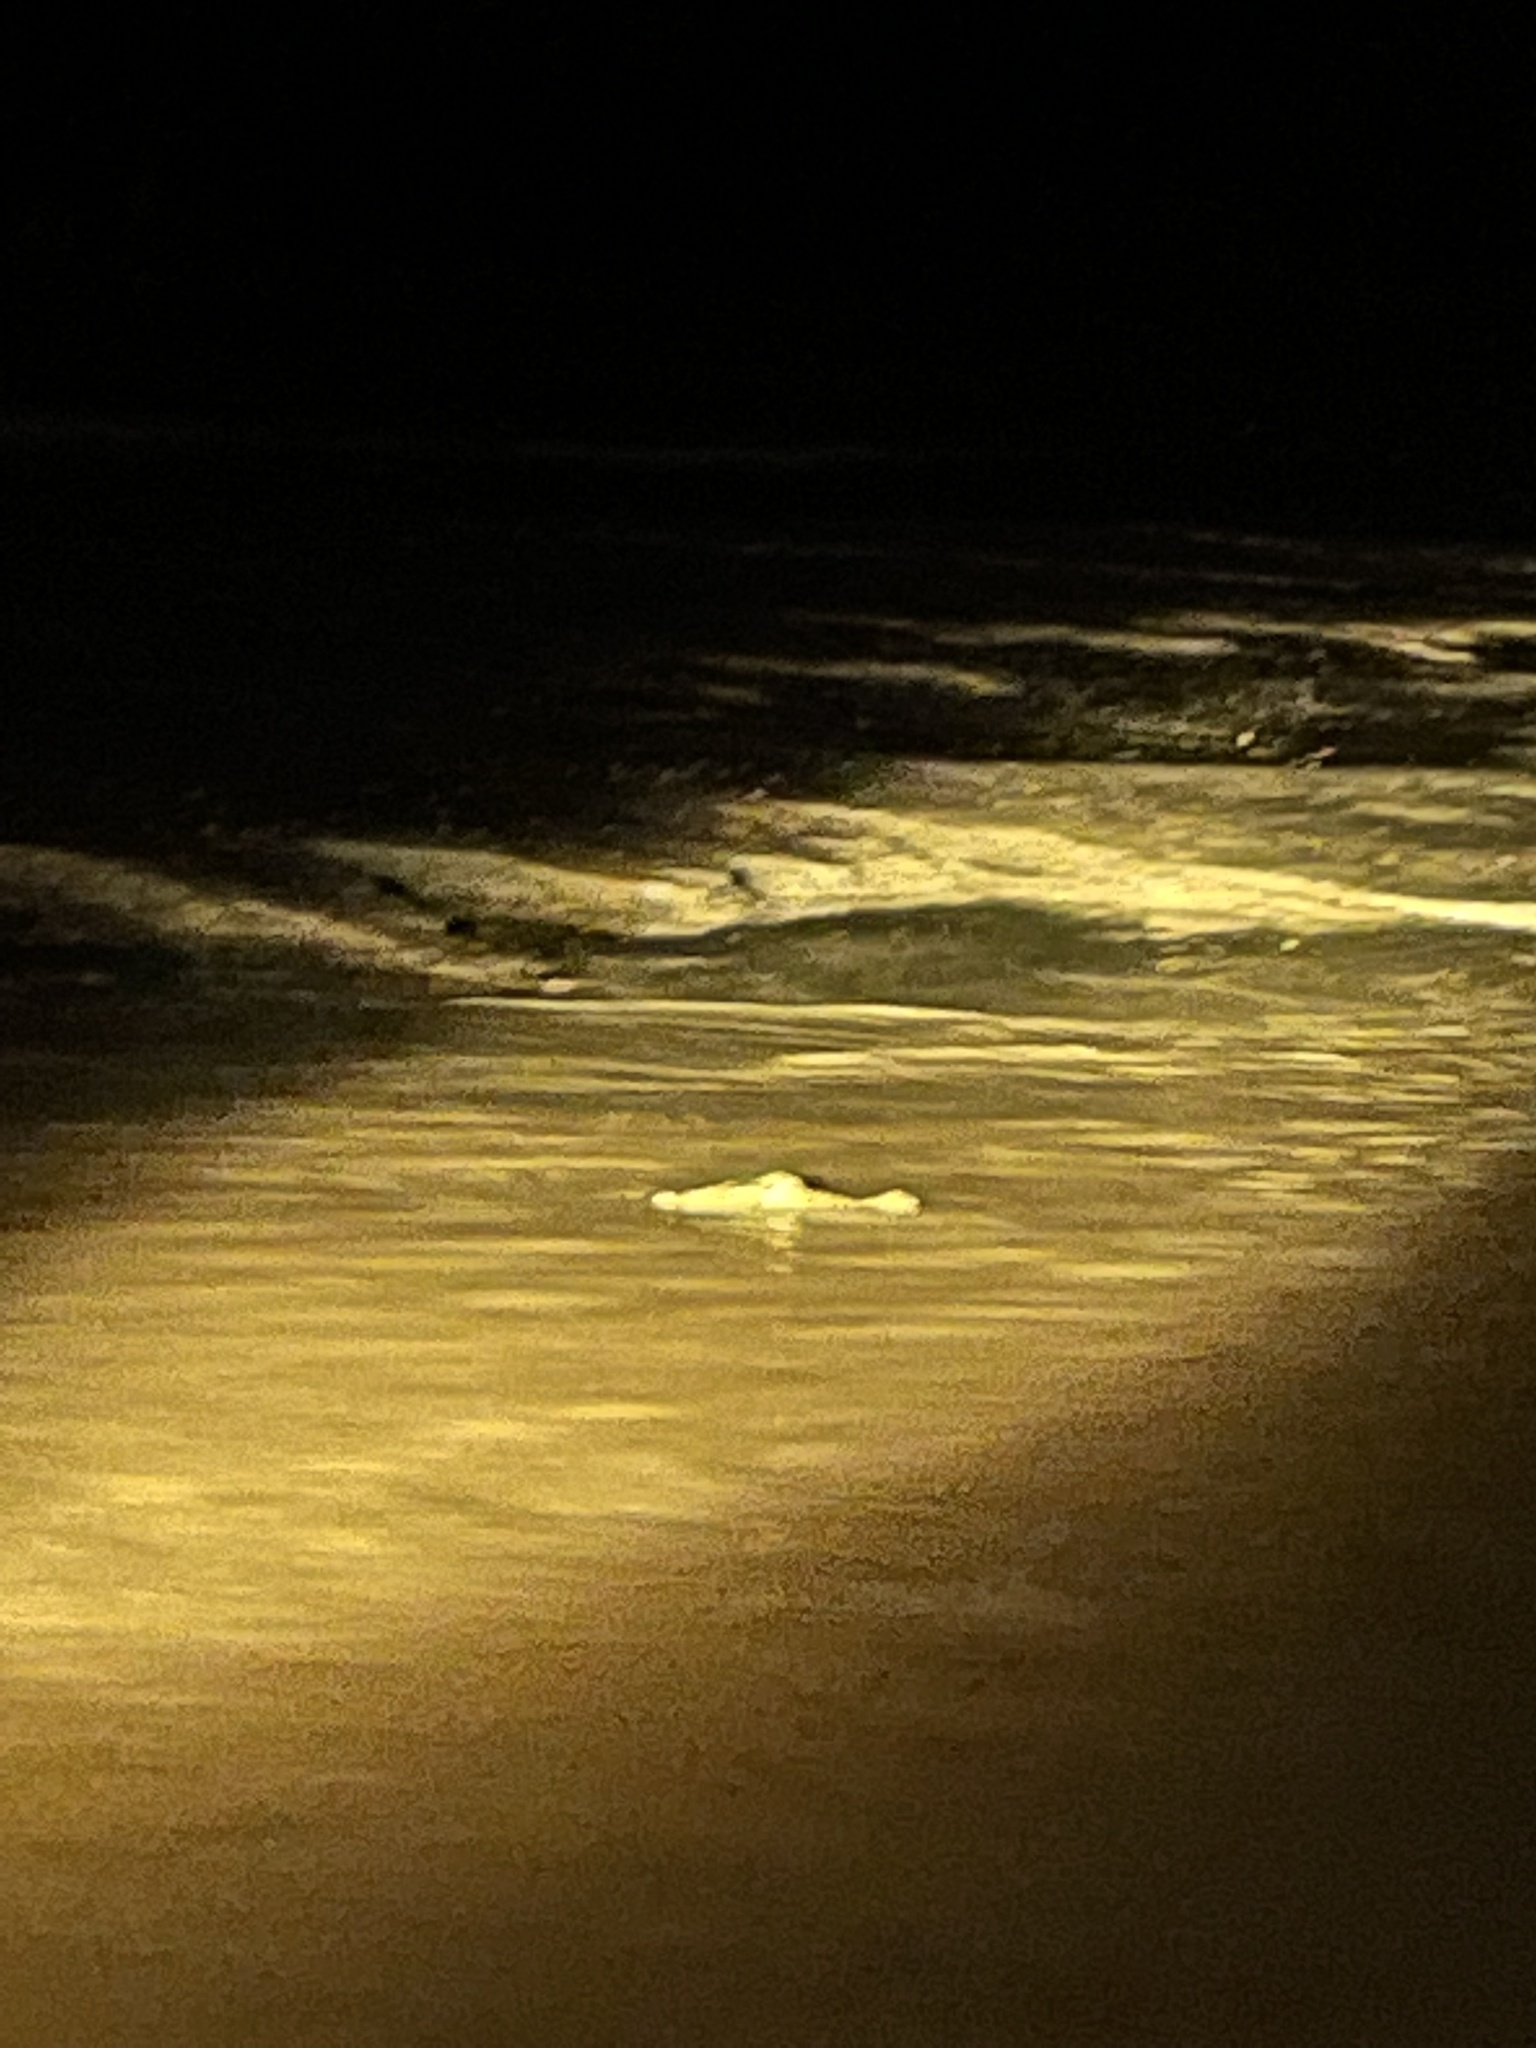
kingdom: Animalia
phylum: Chordata
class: Crocodylia
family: Crocodylidae
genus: Crocodylus
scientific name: Crocodylus porosus
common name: Saltwater crocodile
